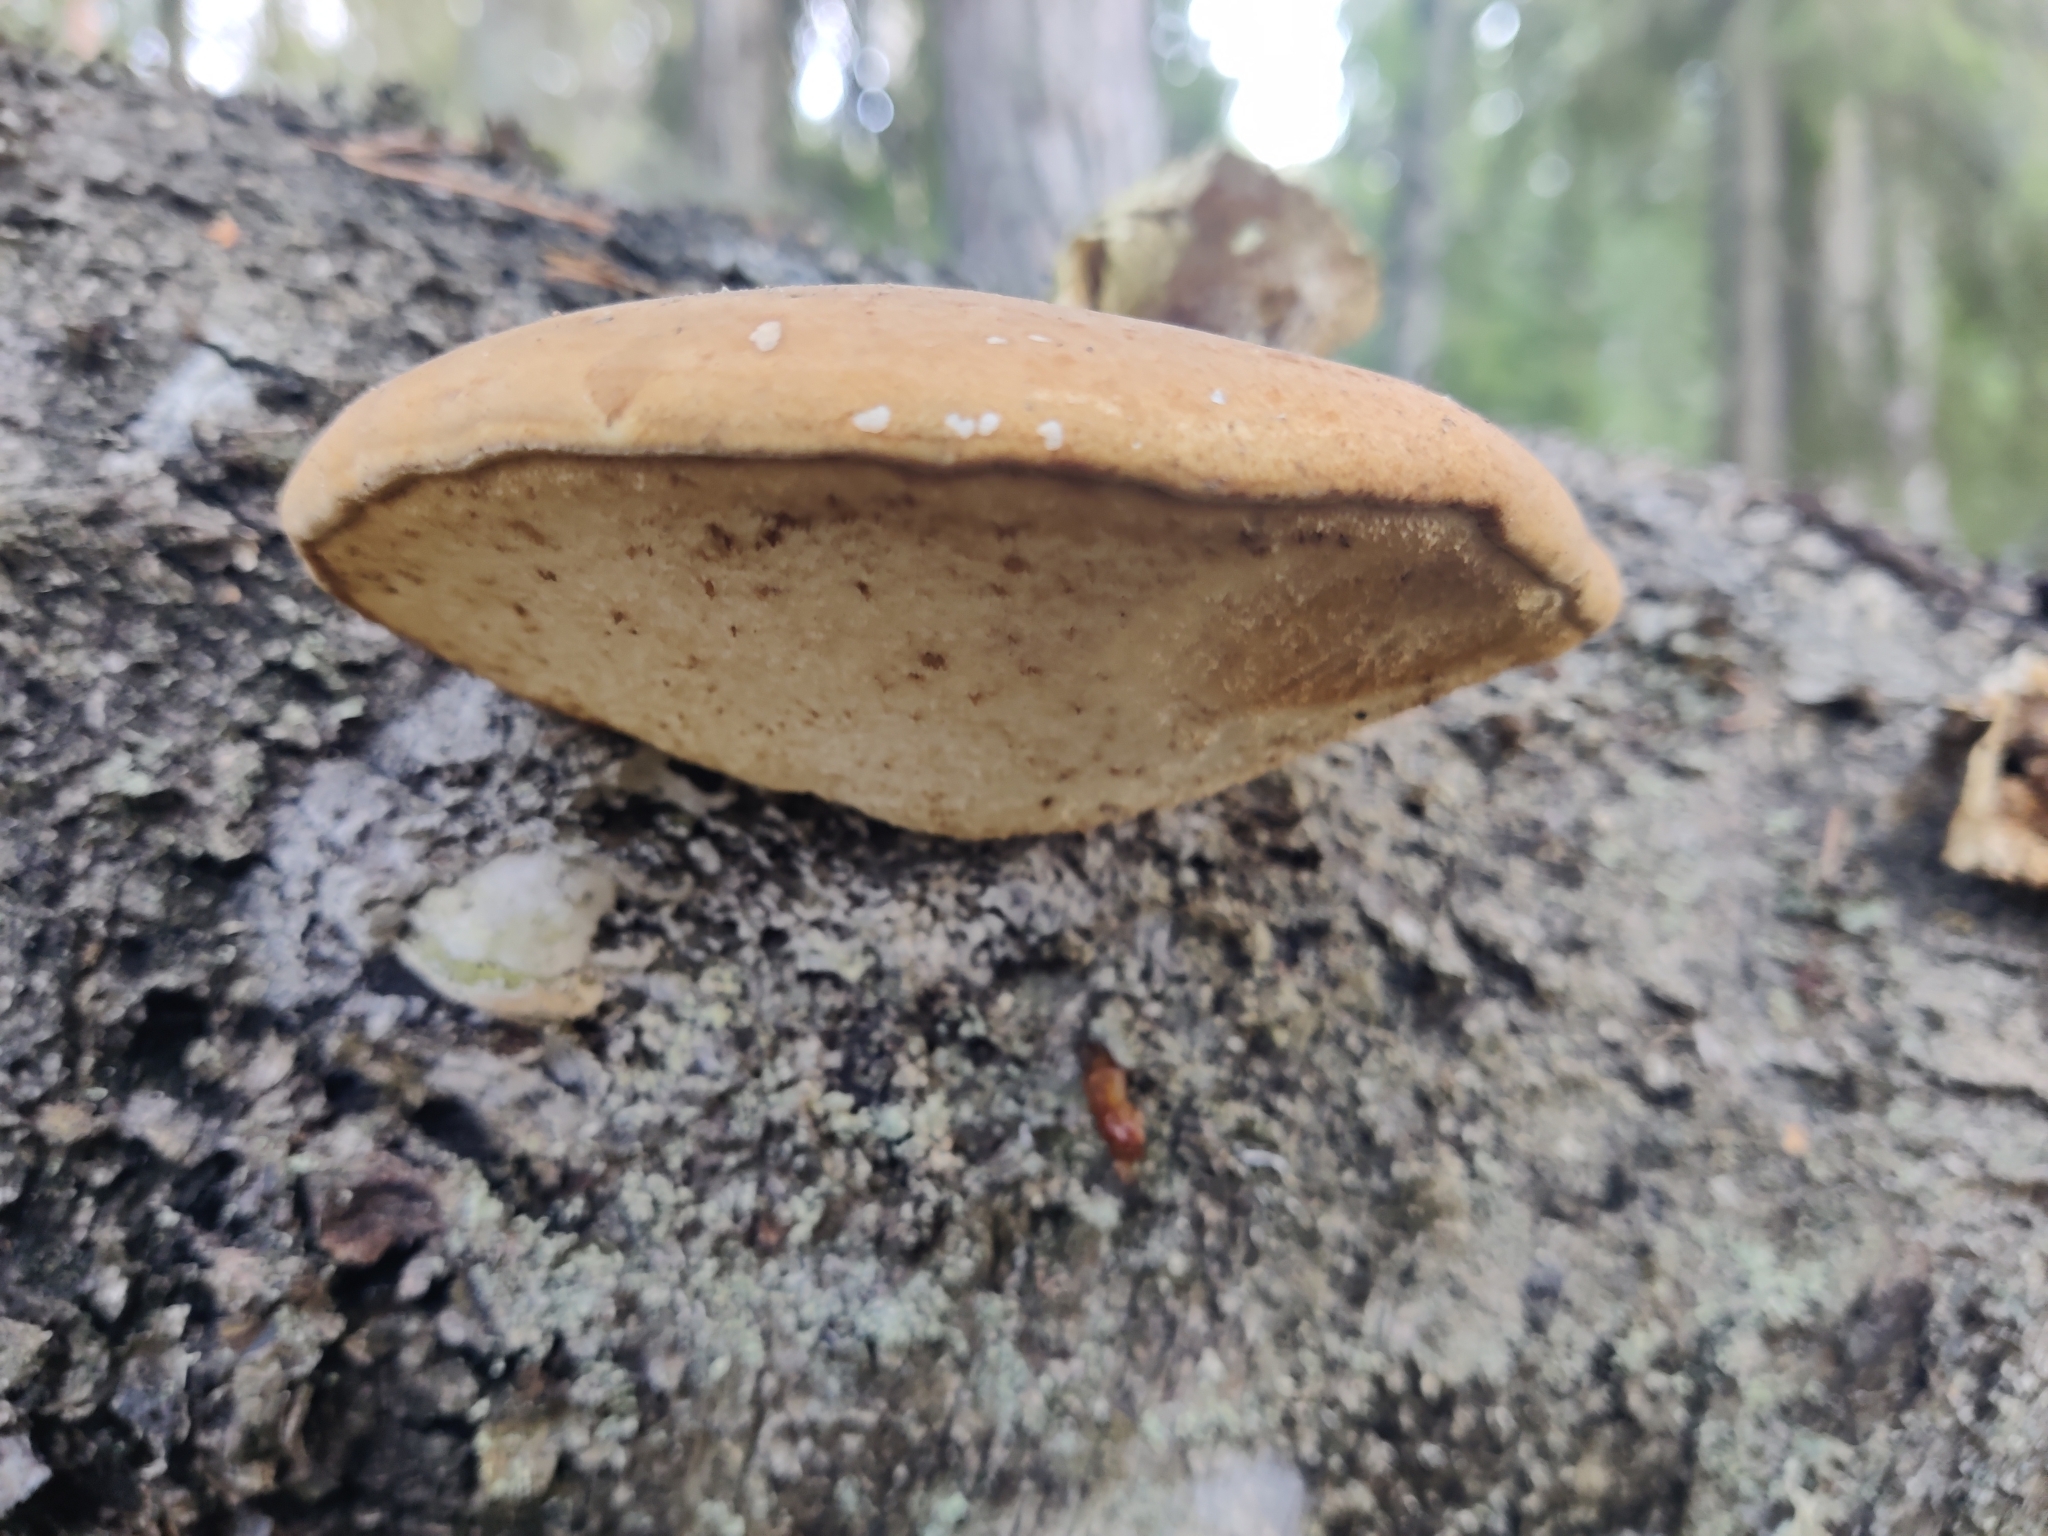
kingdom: Fungi
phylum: Basidiomycota
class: Agaricomycetes
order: Polyporales
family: Fomitopsidaceae
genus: Fomitopsis
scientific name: Fomitopsis betulina
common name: Birch polypore
